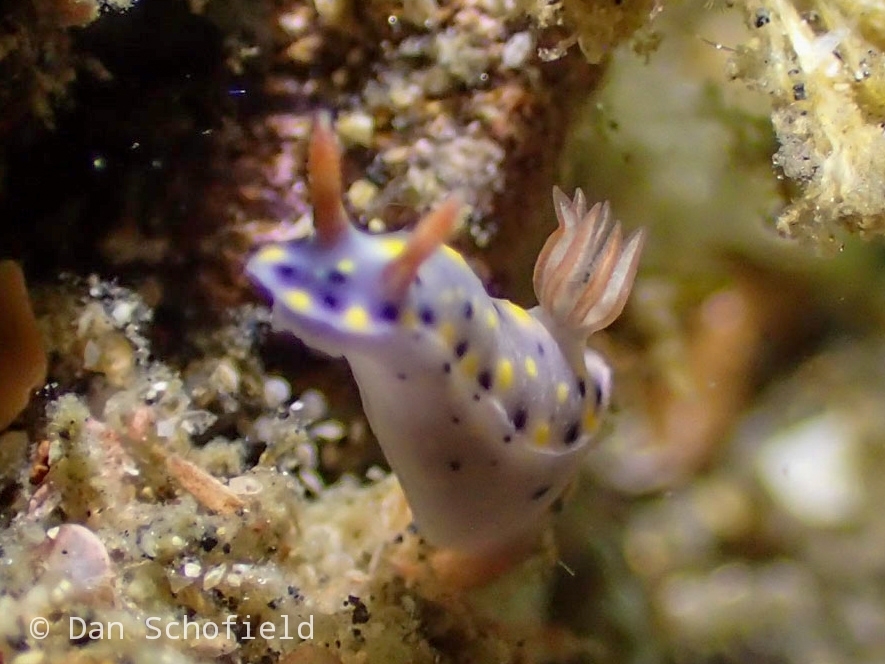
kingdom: Animalia
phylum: Mollusca
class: Gastropoda
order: Nudibranchia
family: Chromodorididae
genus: Hypselodoris
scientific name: Hypselodoris roo
